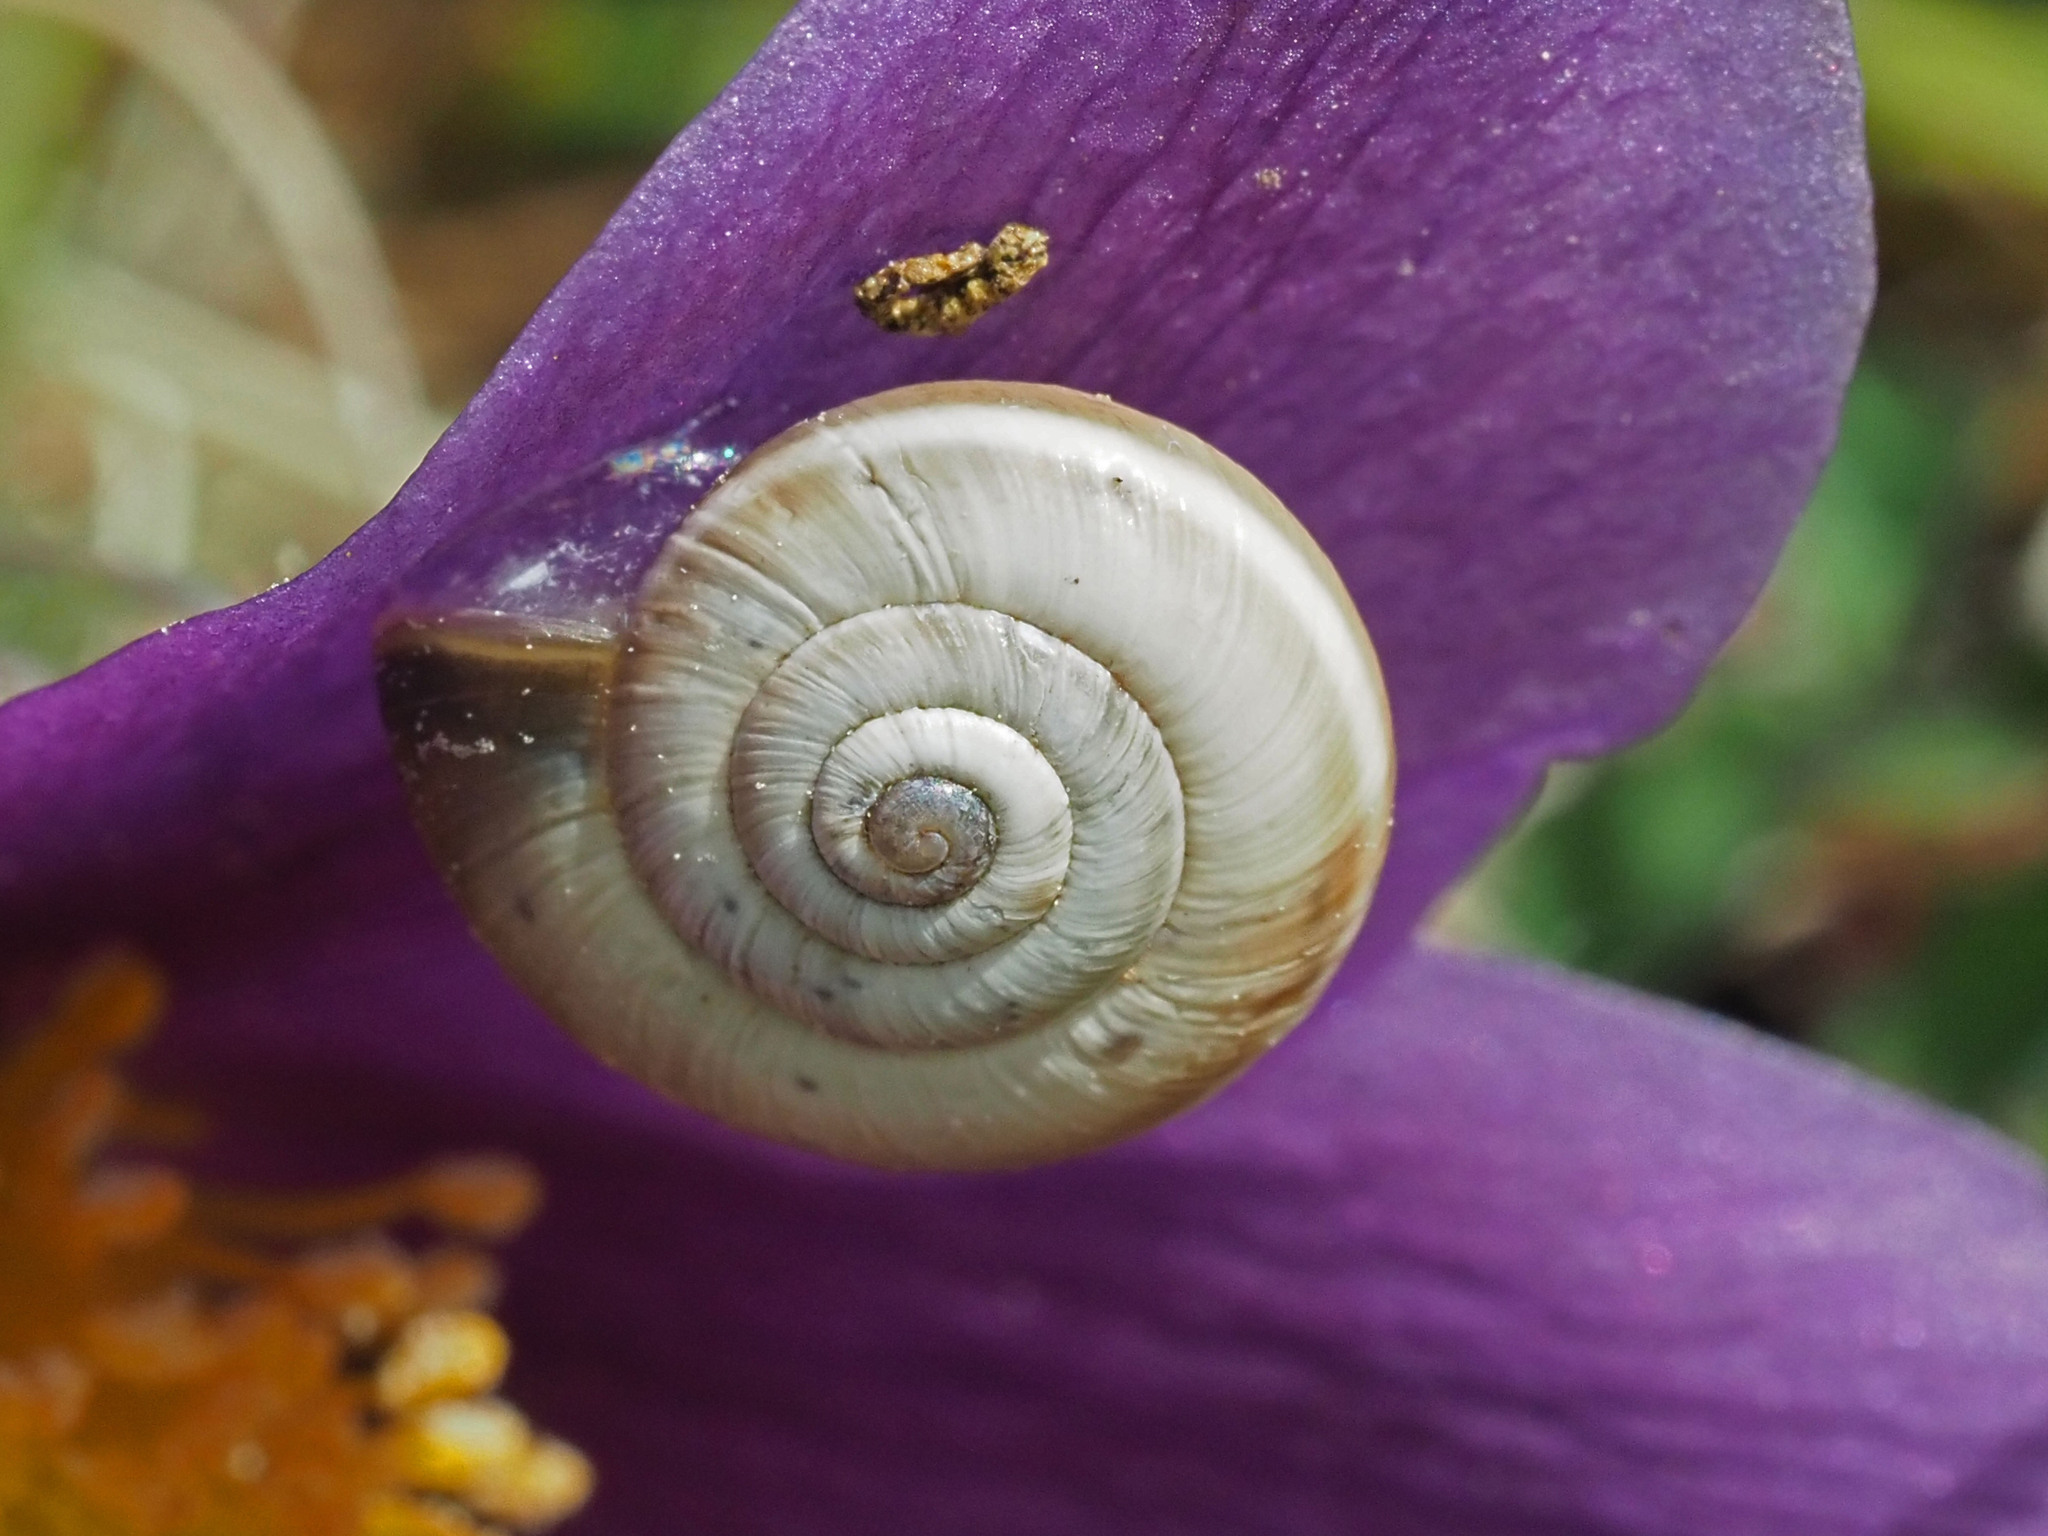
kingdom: Animalia
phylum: Mollusca
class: Gastropoda
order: Stylommatophora
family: Geomitridae
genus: Helicella
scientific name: Helicella itala
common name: Heath snail
